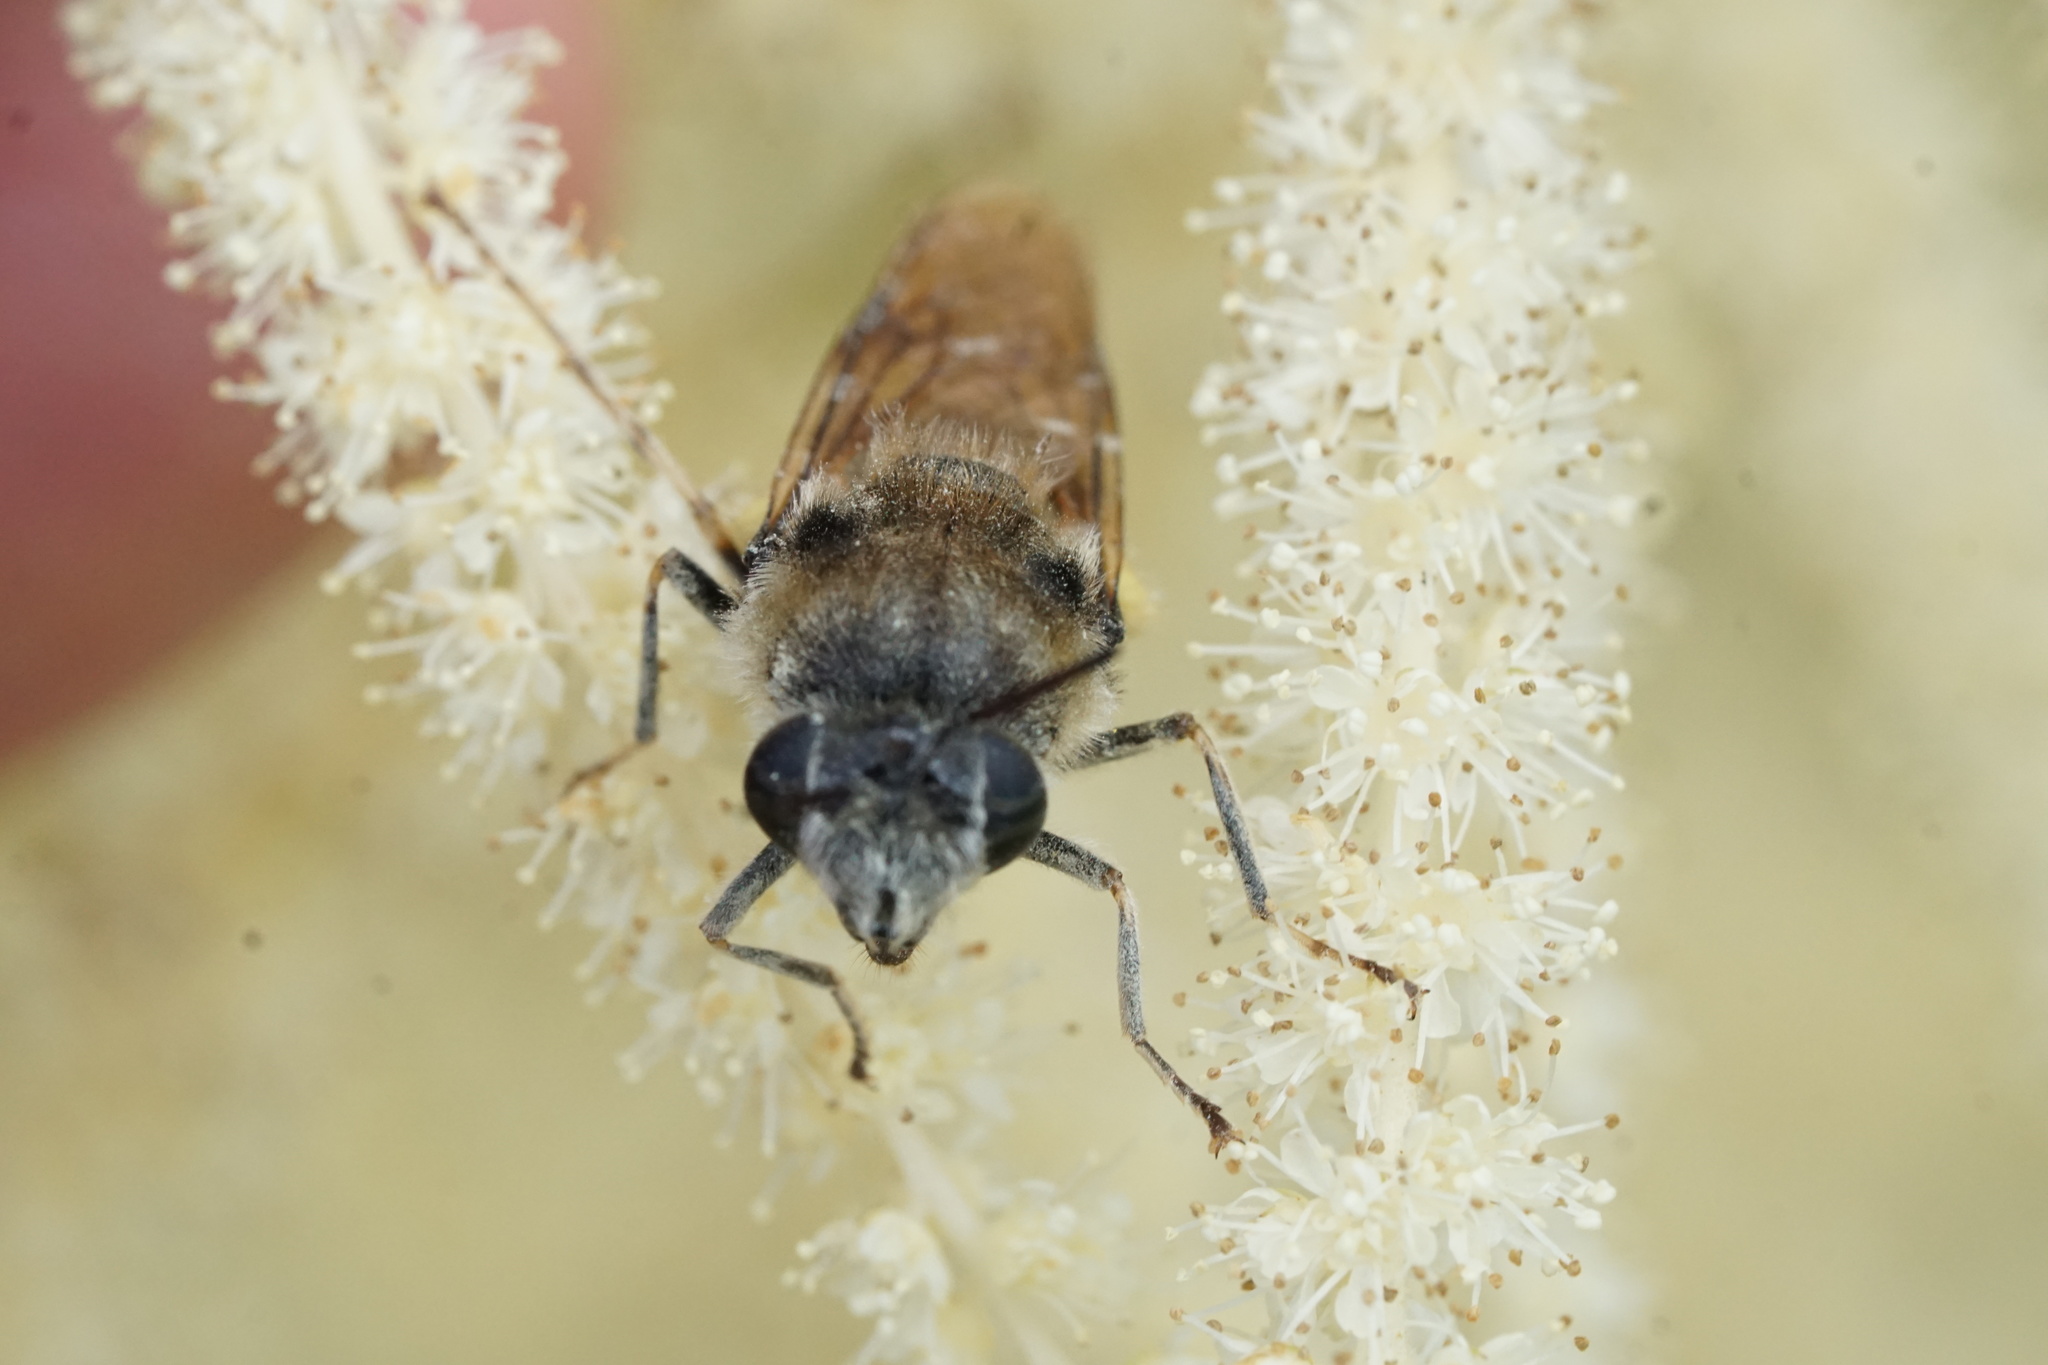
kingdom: Animalia
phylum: Arthropoda
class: Insecta
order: Diptera
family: Stratiomyidae
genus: Stratiomys
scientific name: Stratiomys discalis
